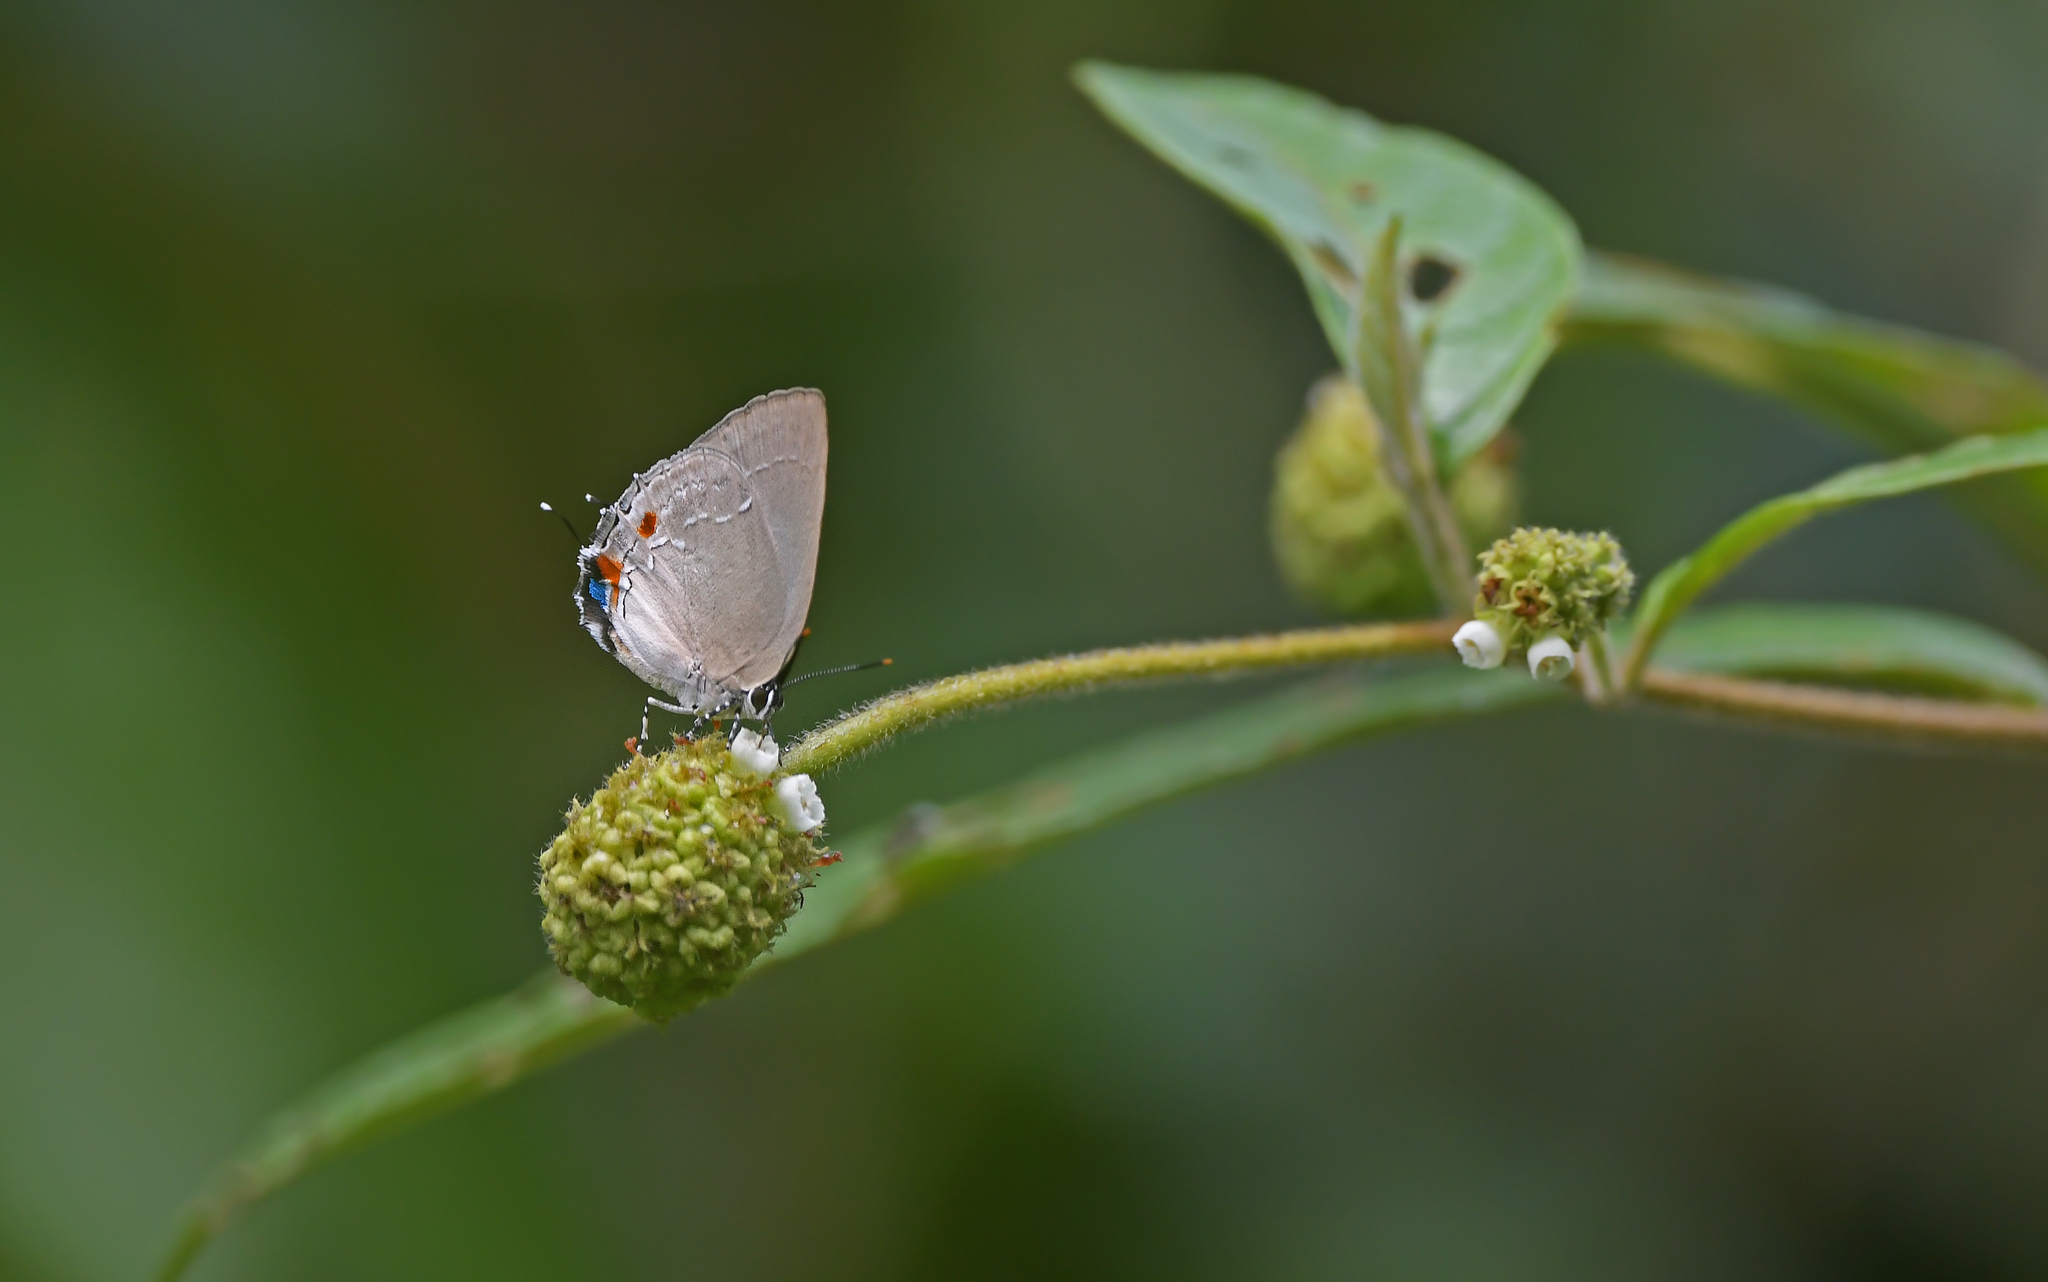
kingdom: Animalia
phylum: Arthropoda
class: Insecta
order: Lepidoptera
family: Lycaenidae
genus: Thecla
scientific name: Thecla cyllarissus
